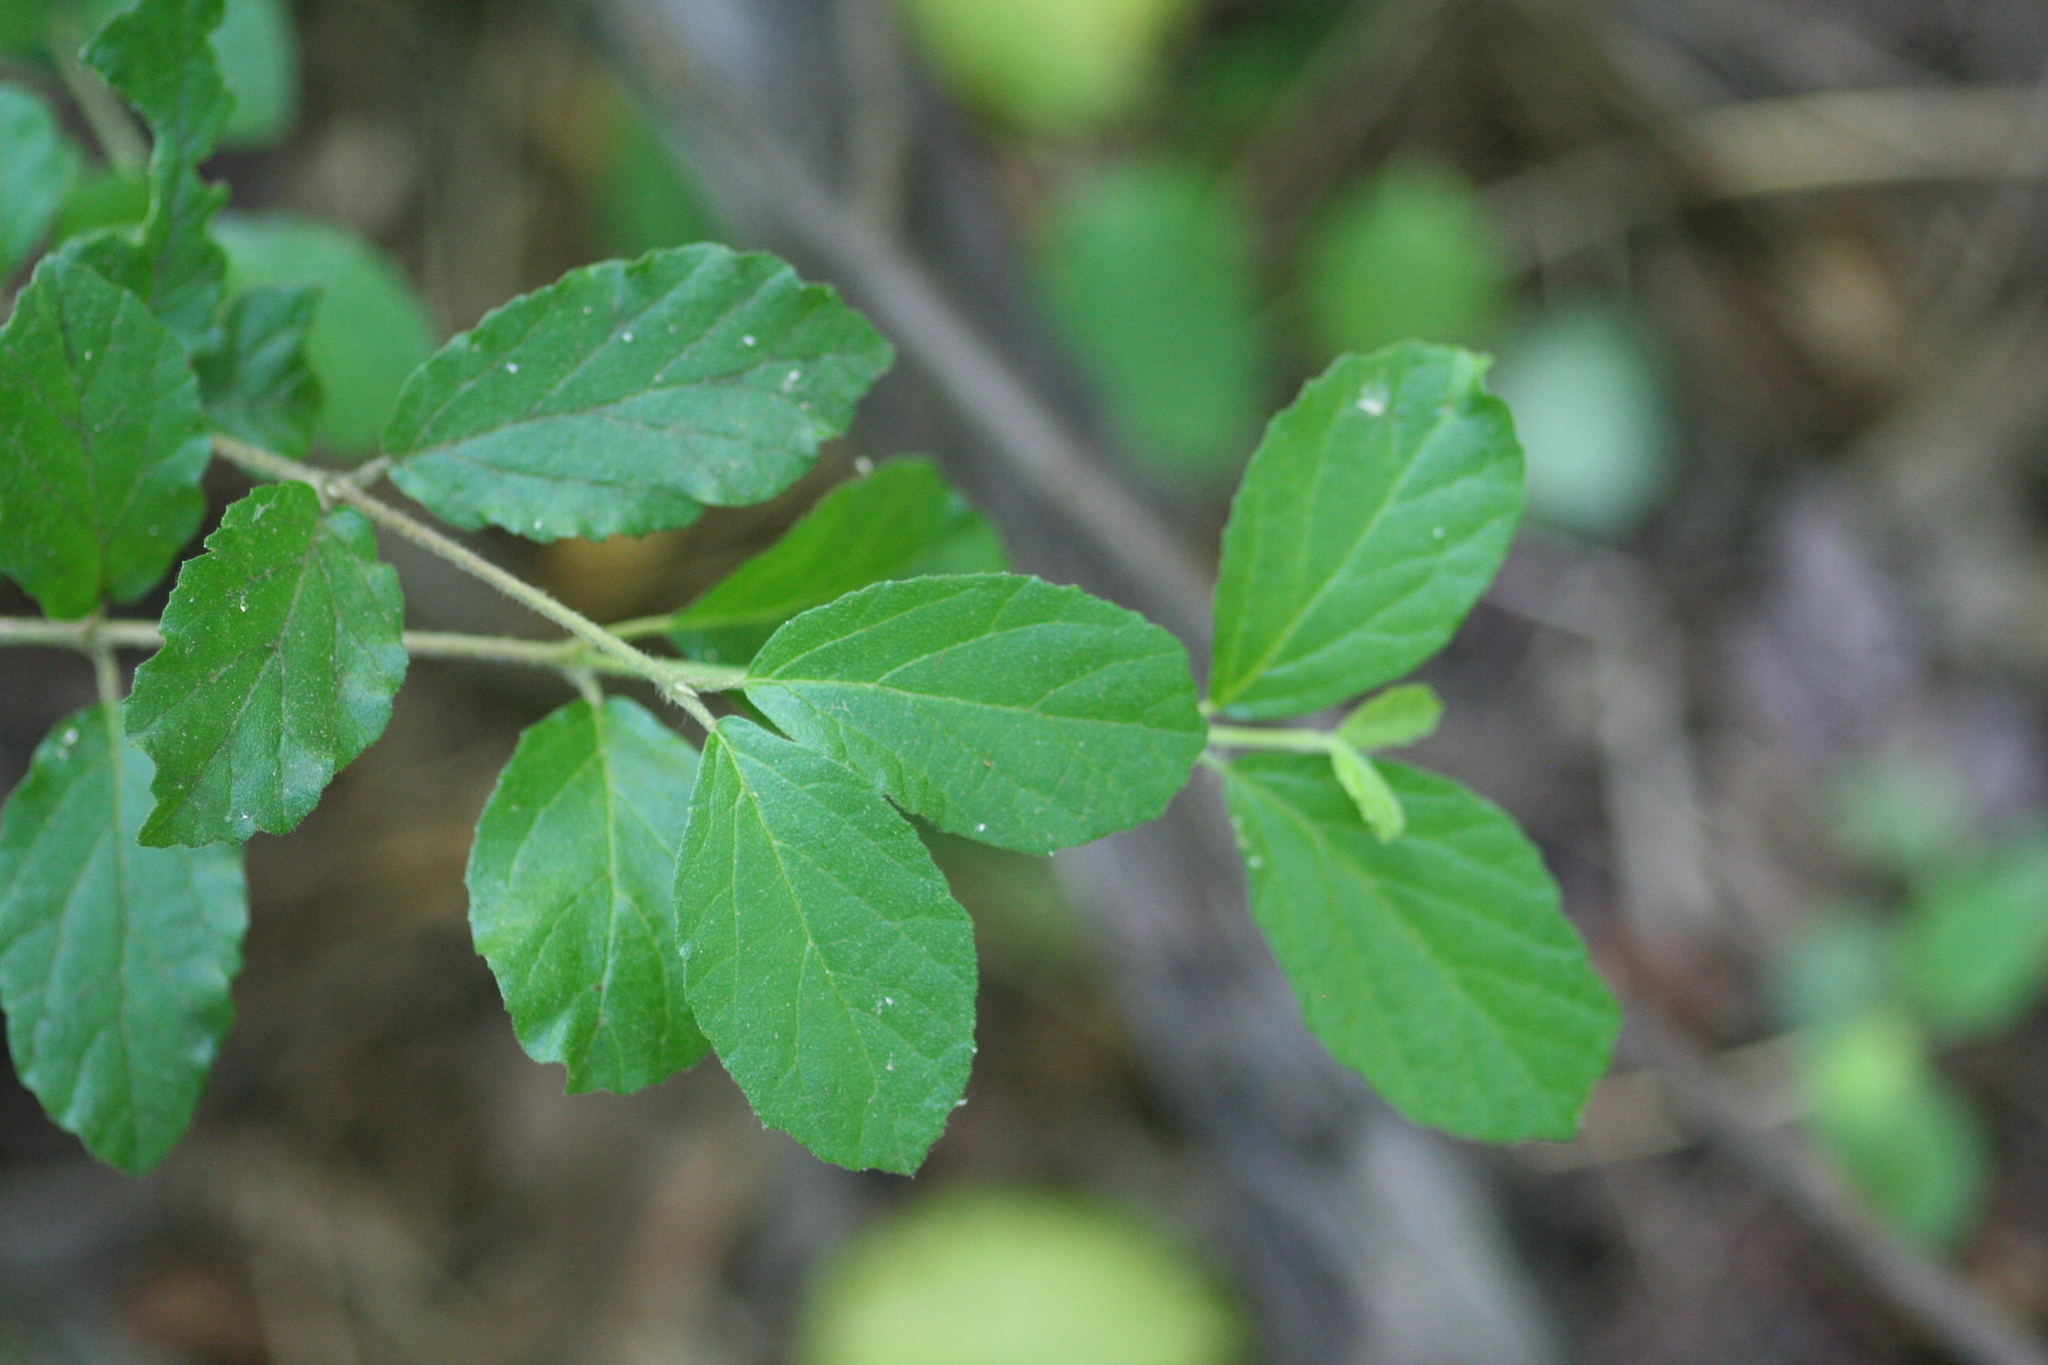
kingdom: Plantae
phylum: Tracheophyta
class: Magnoliopsida
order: Dipsacales
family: Viburnaceae
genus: Viburnum
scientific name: Viburnum dilatatum
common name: Linden arrowwood
